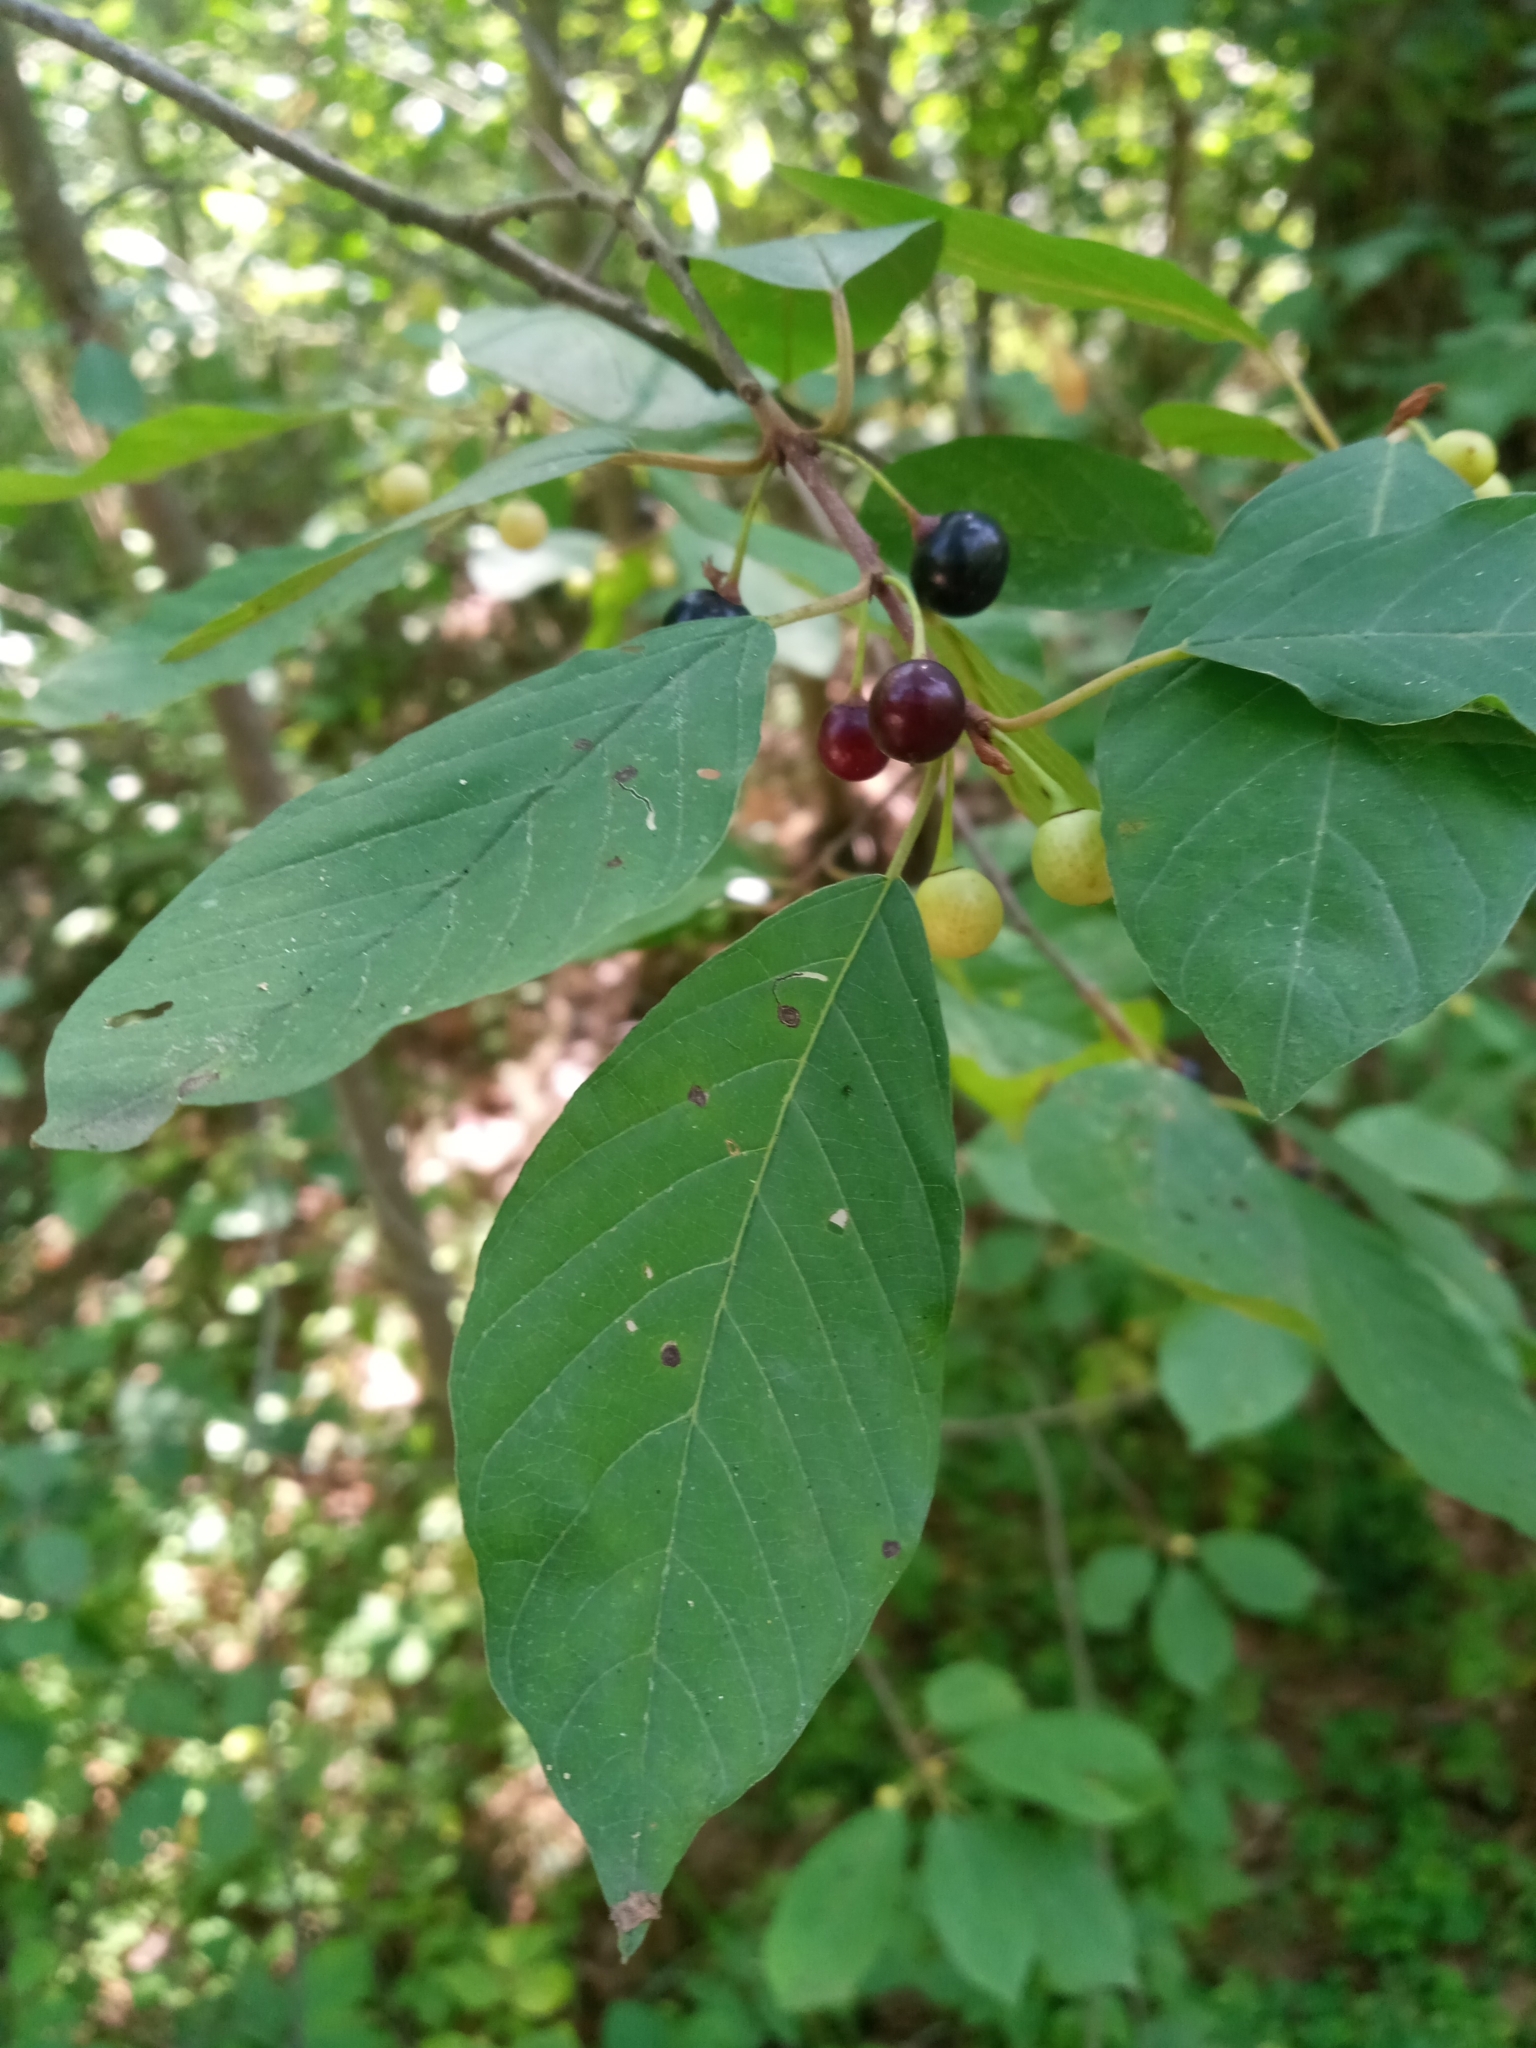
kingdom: Plantae
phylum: Tracheophyta
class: Magnoliopsida
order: Rosales
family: Rhamnaceae
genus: Frangula
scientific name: Frangula alnus
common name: Alder buckthorn
